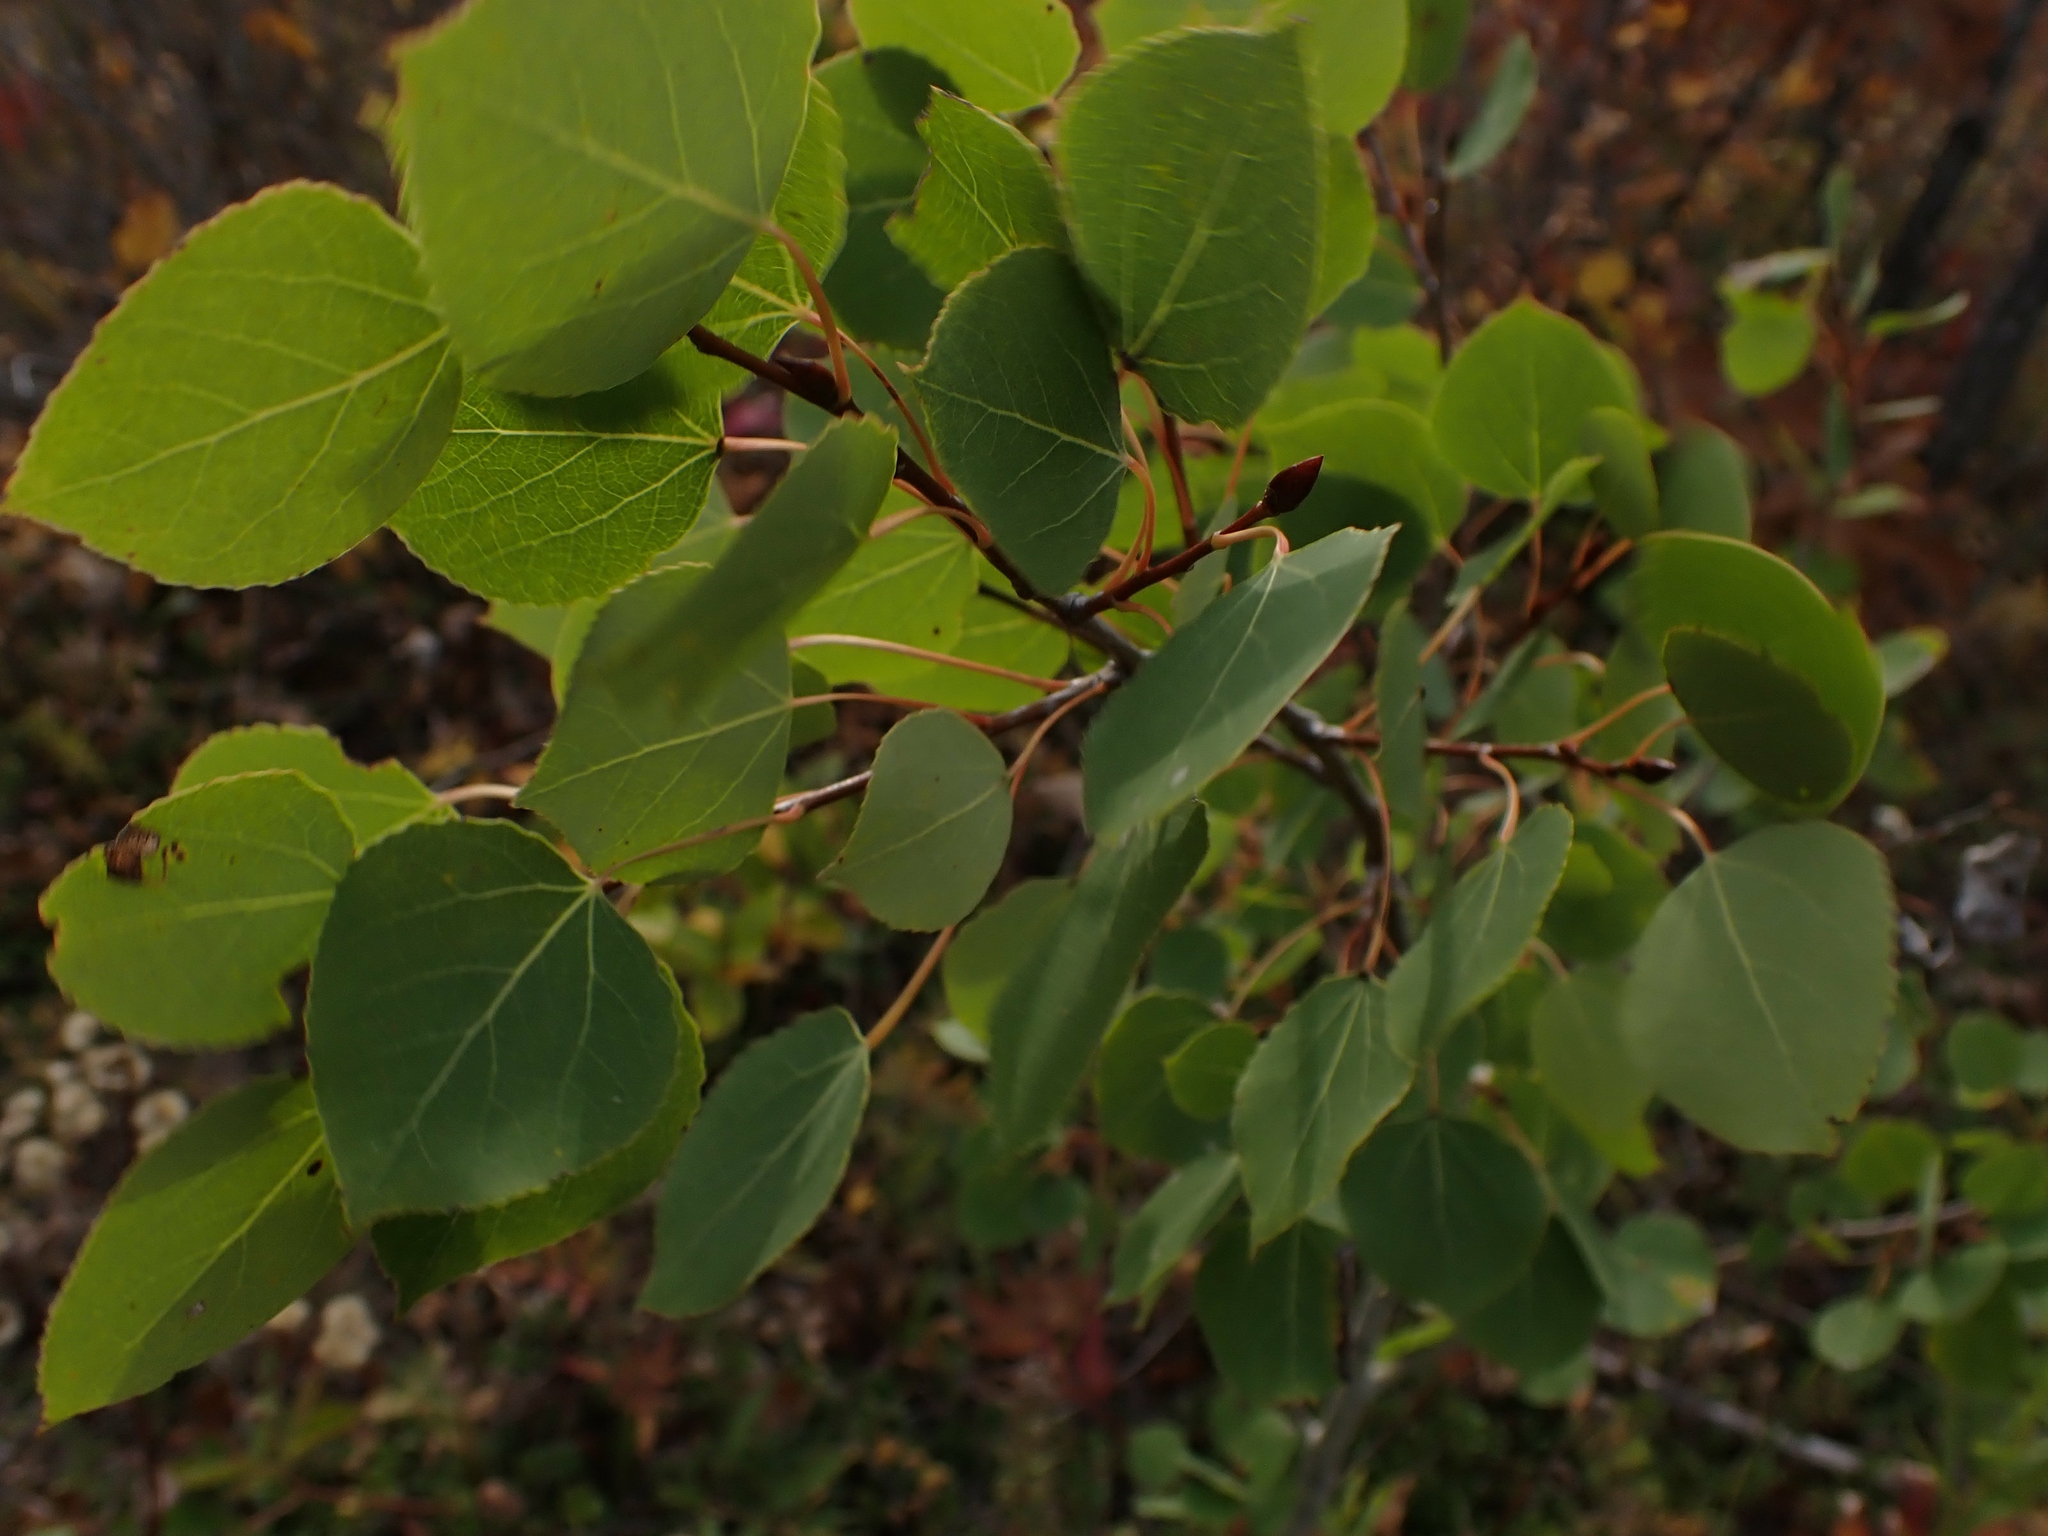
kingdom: Plantae
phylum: Tracheophyta
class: Magnoliopsida
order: Malpighiales
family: Salicaceae
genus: Populus
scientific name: Populus tremuloides
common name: Quaking aspen
